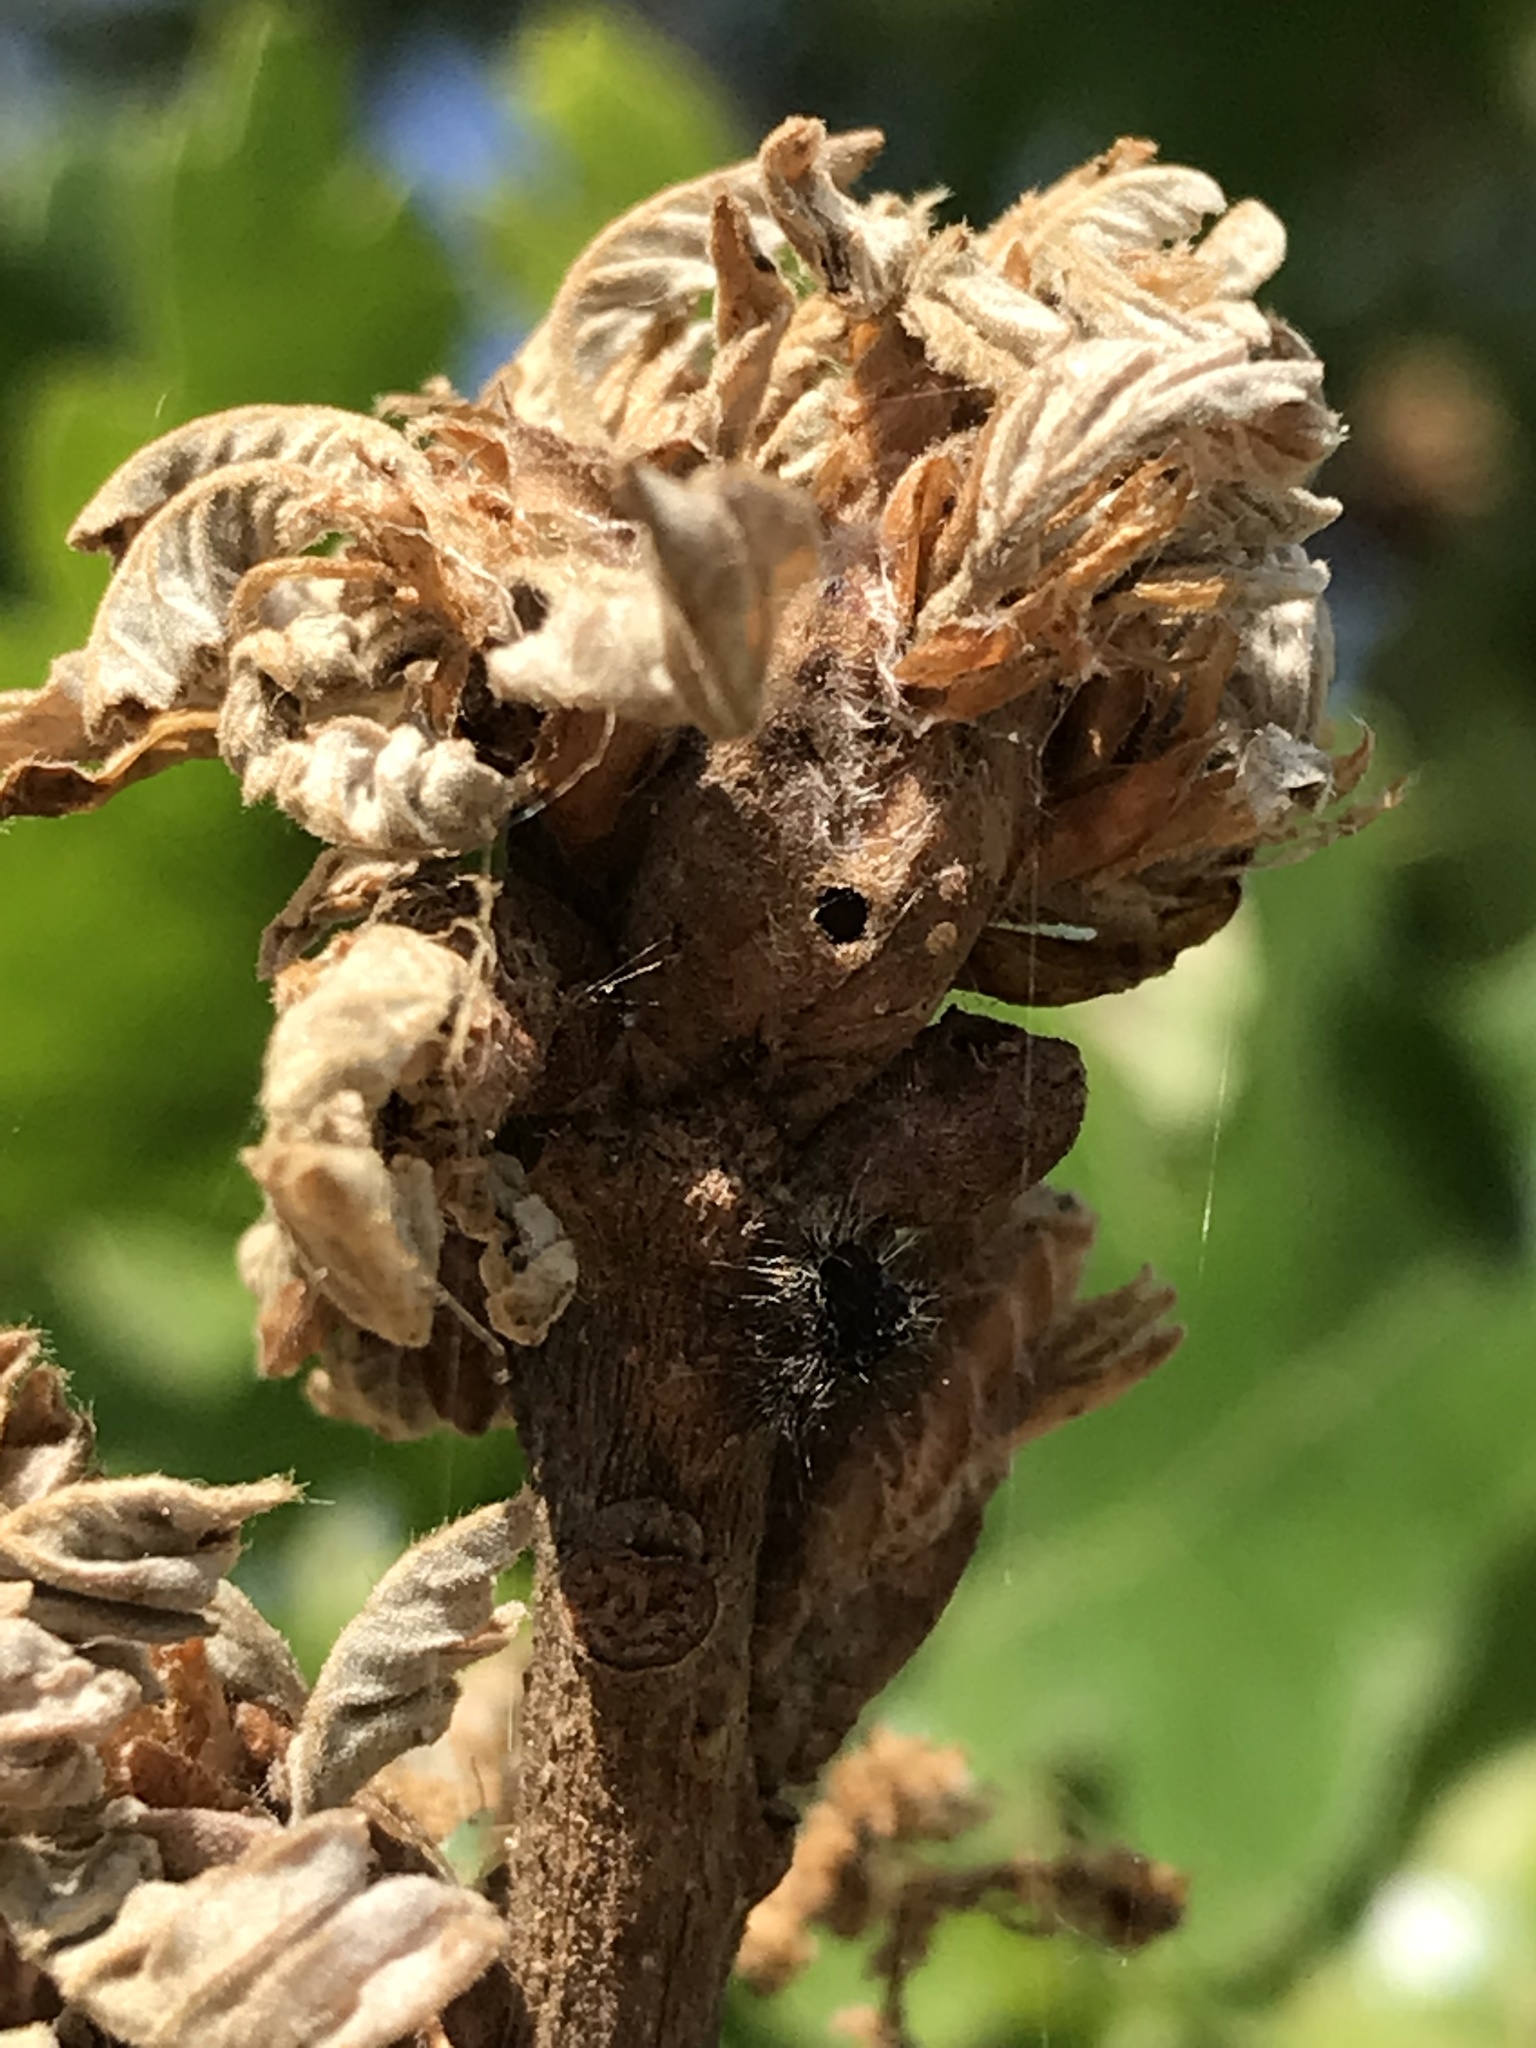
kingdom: Animalia
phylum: Arthropoda
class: Insecta
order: Hymenoptera
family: Cynipidae
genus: Andricus
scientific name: Andricus
